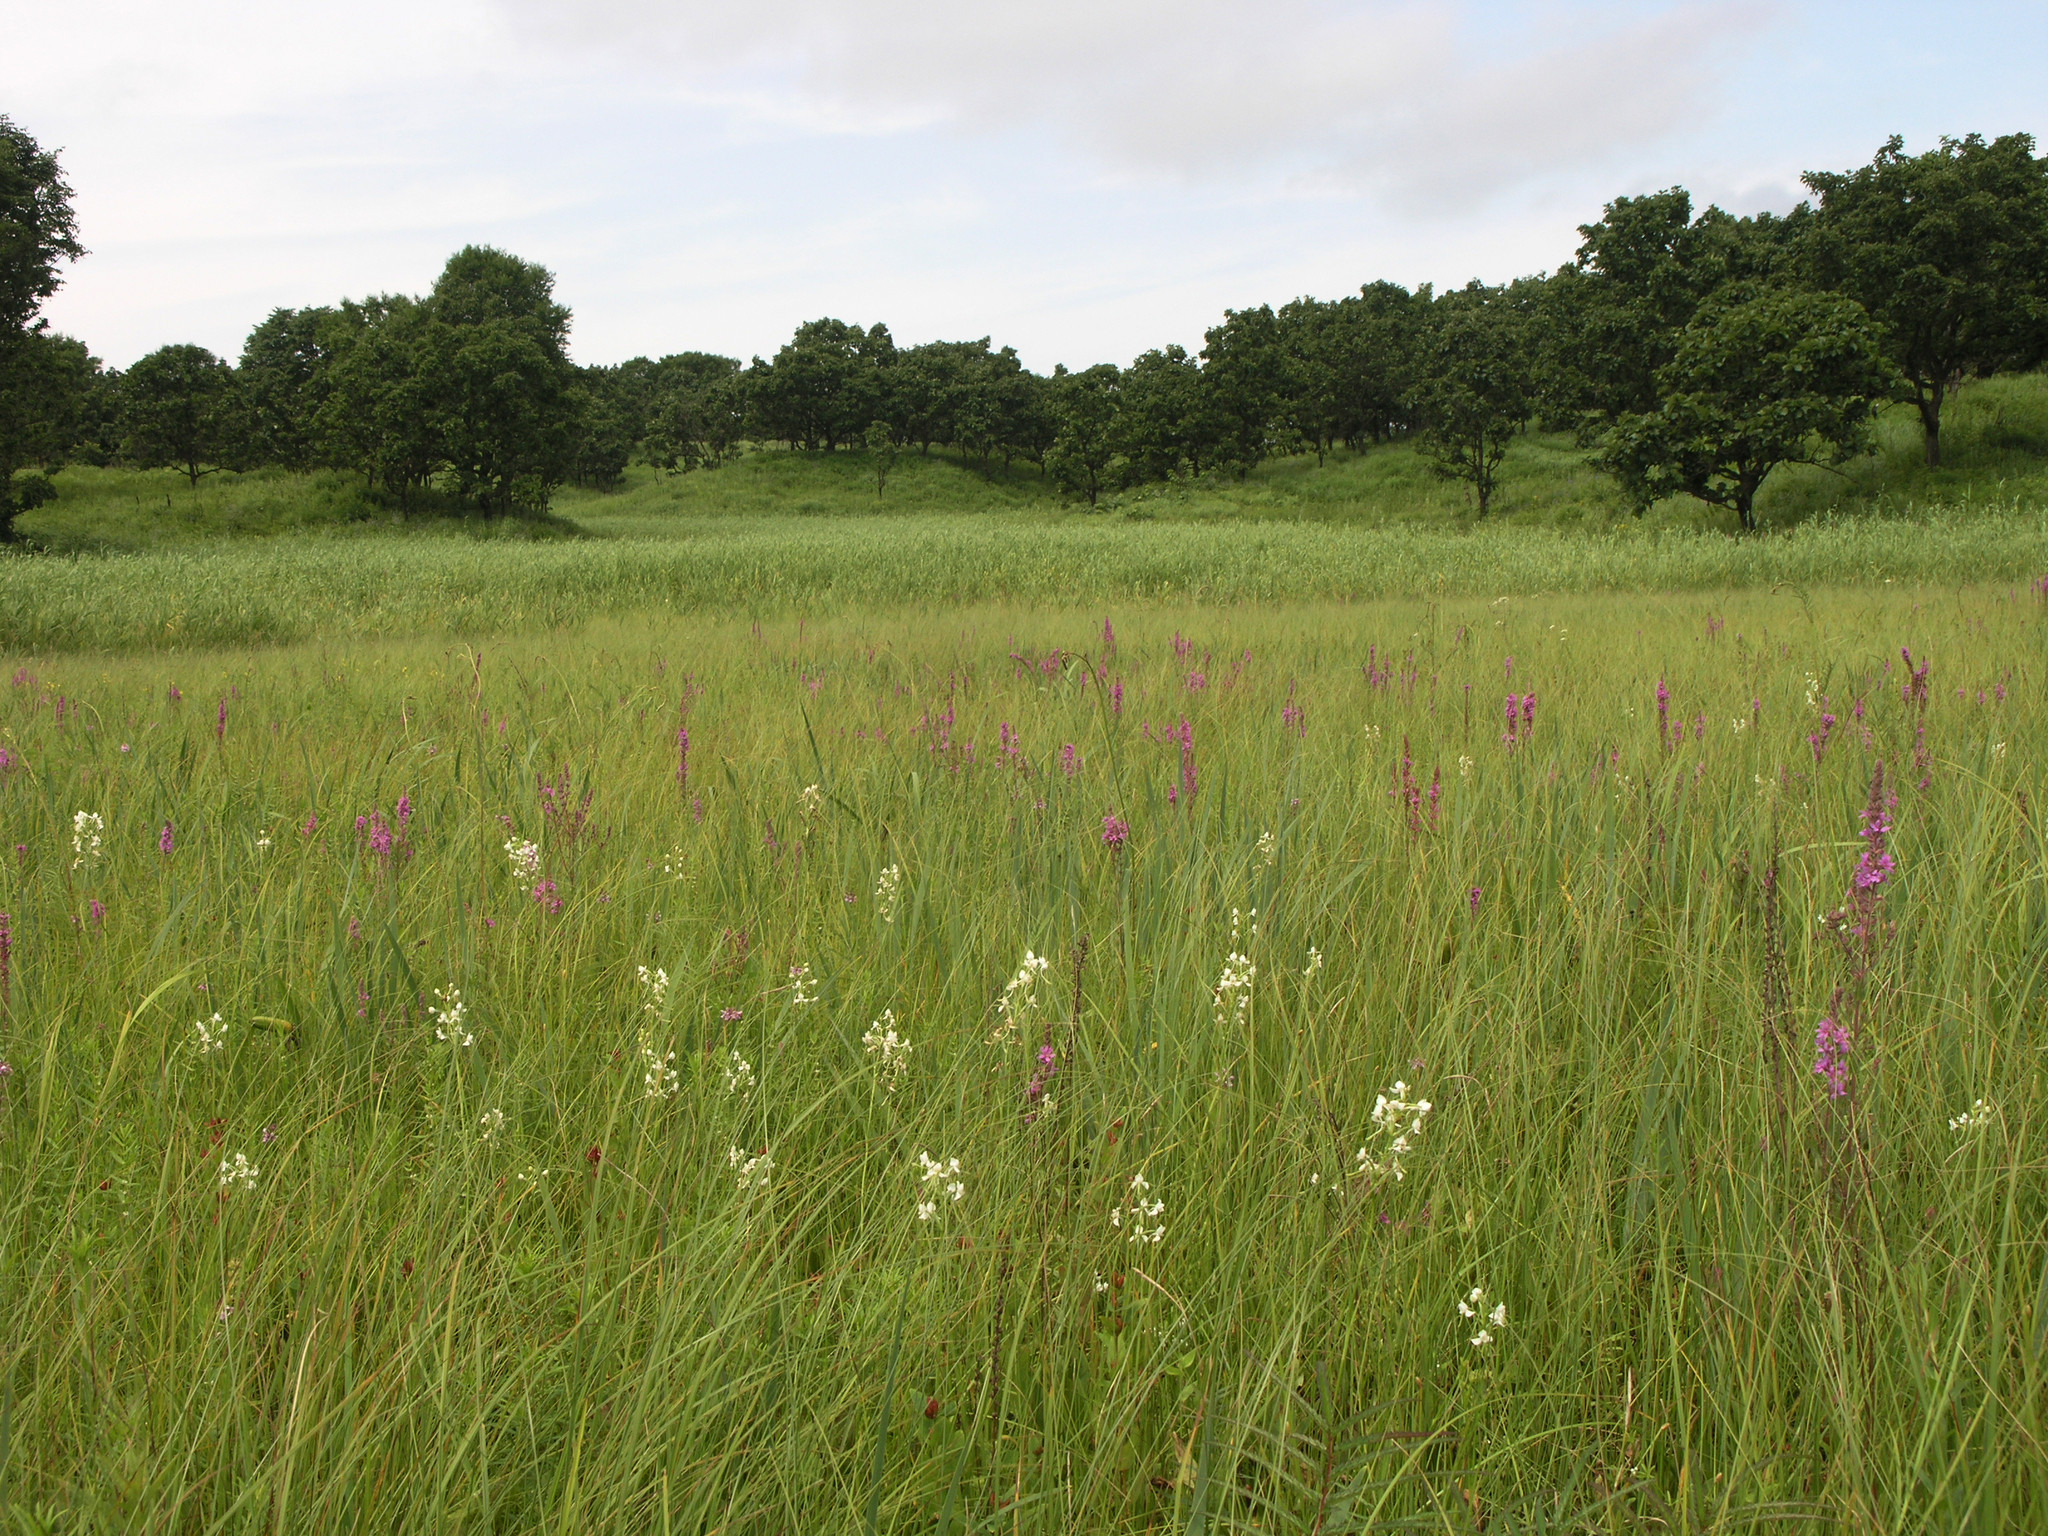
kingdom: Plantae
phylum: Tracheophyta
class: Liliopsida
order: Asparagales
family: Orchidaceae
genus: Habenaria
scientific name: Habenaria linearifolia
